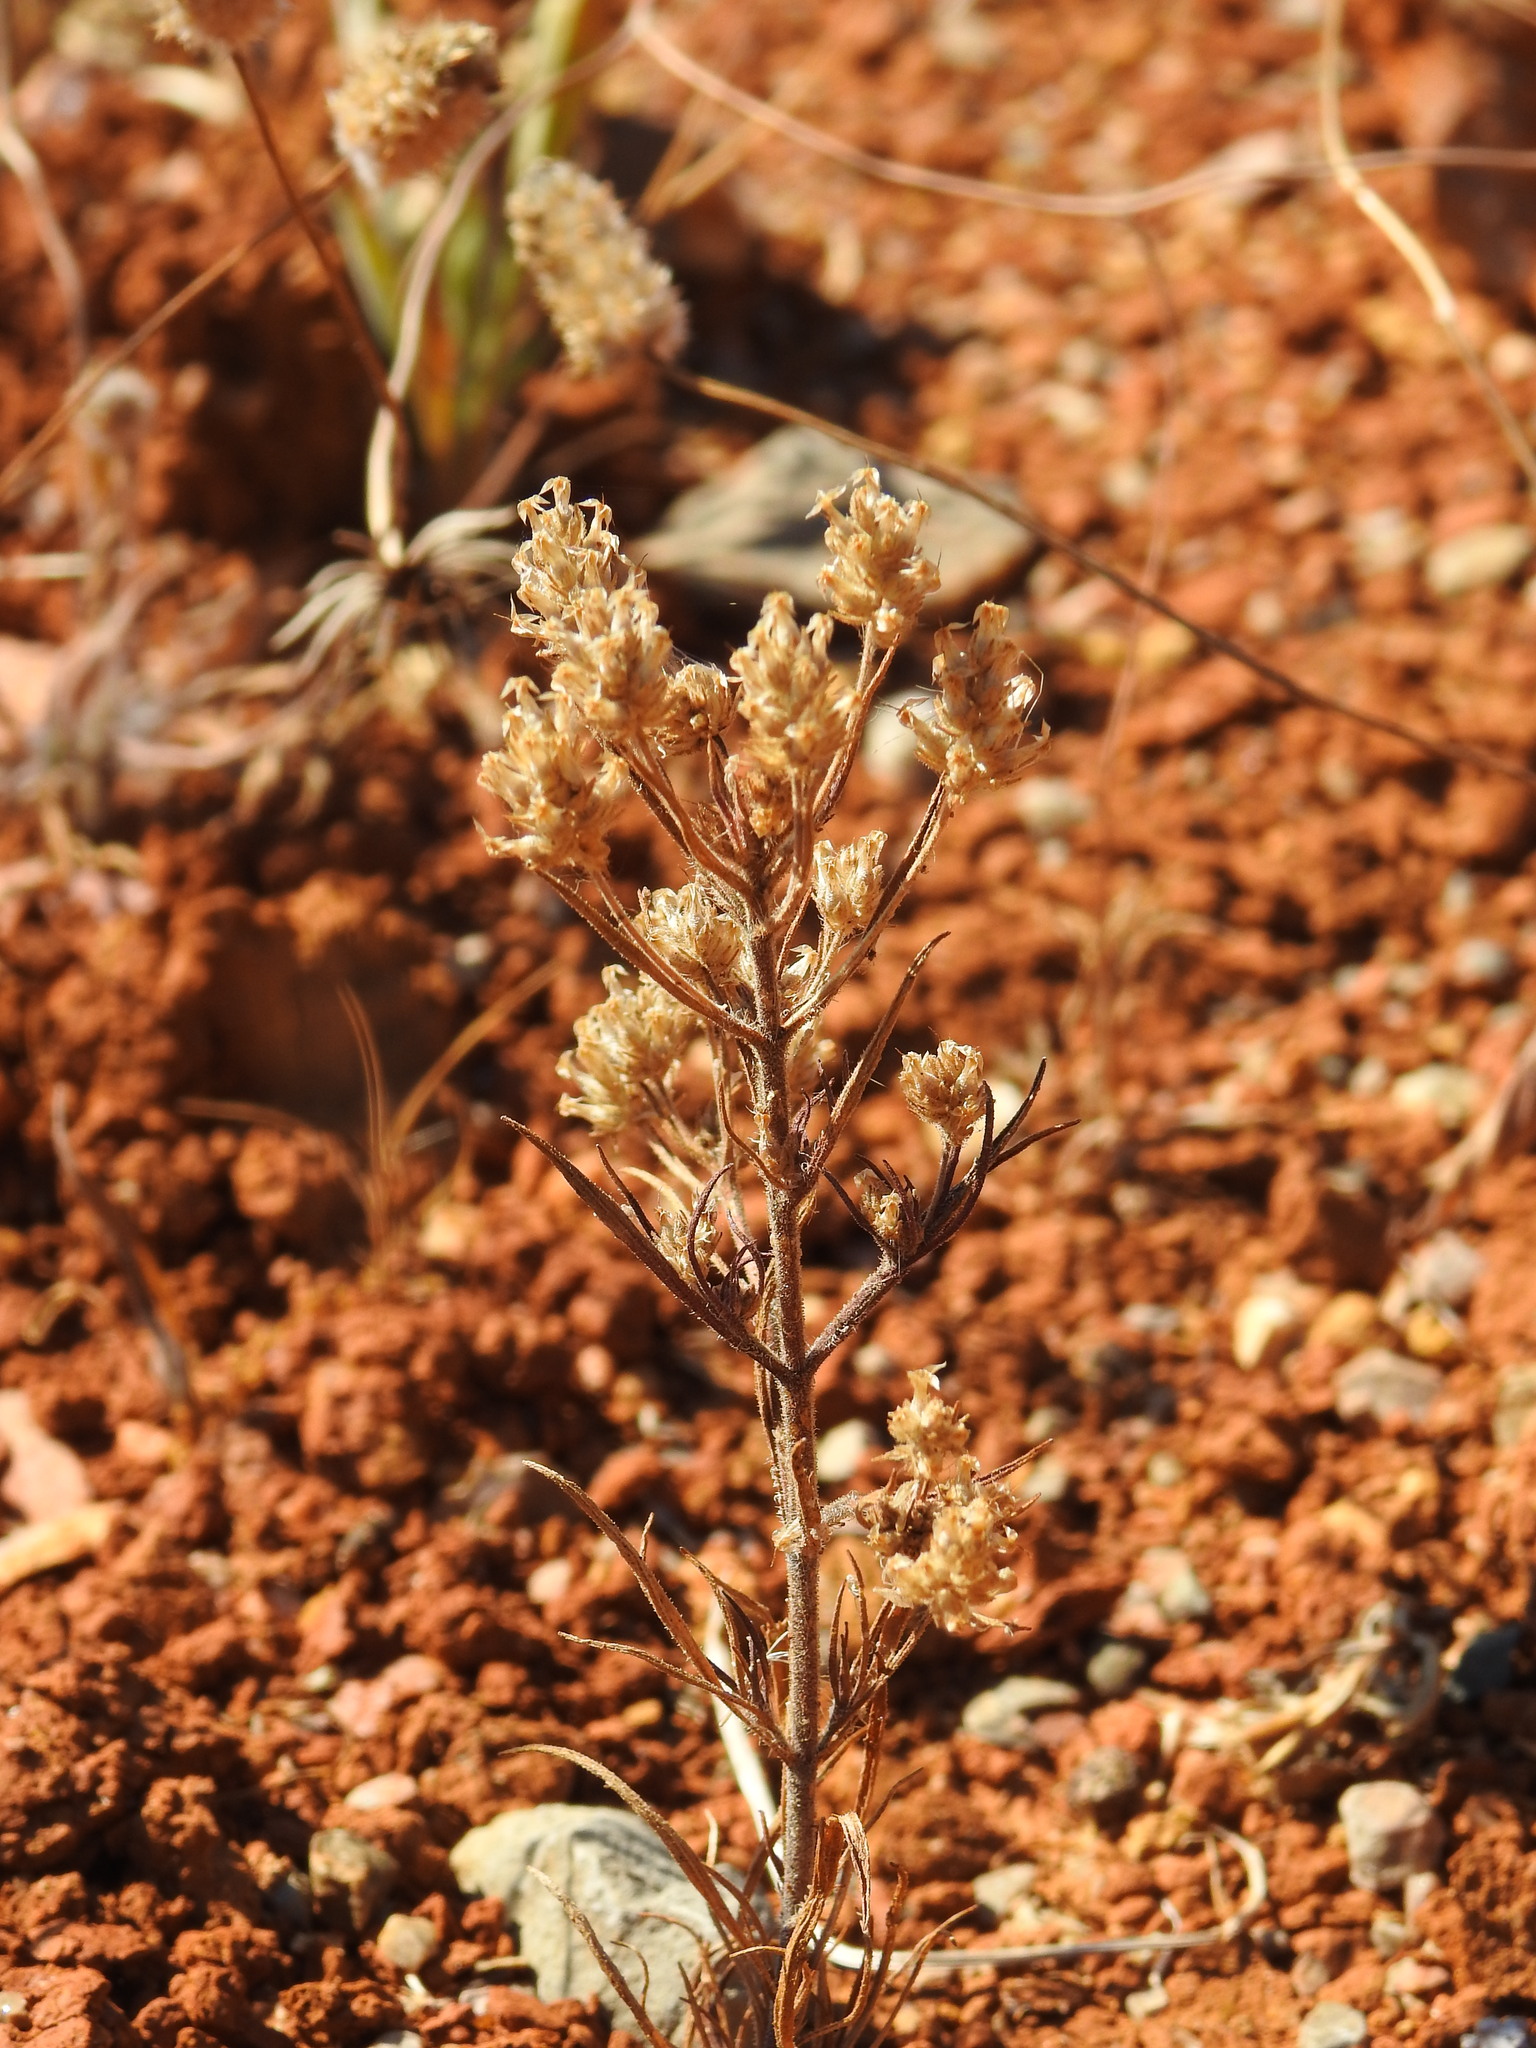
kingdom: Plantae
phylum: Tracheophyta
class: Magnoliopsida
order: Lamiales
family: Plantaginaceae
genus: Plantago
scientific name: Plantago afra
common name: Glandular plantain
